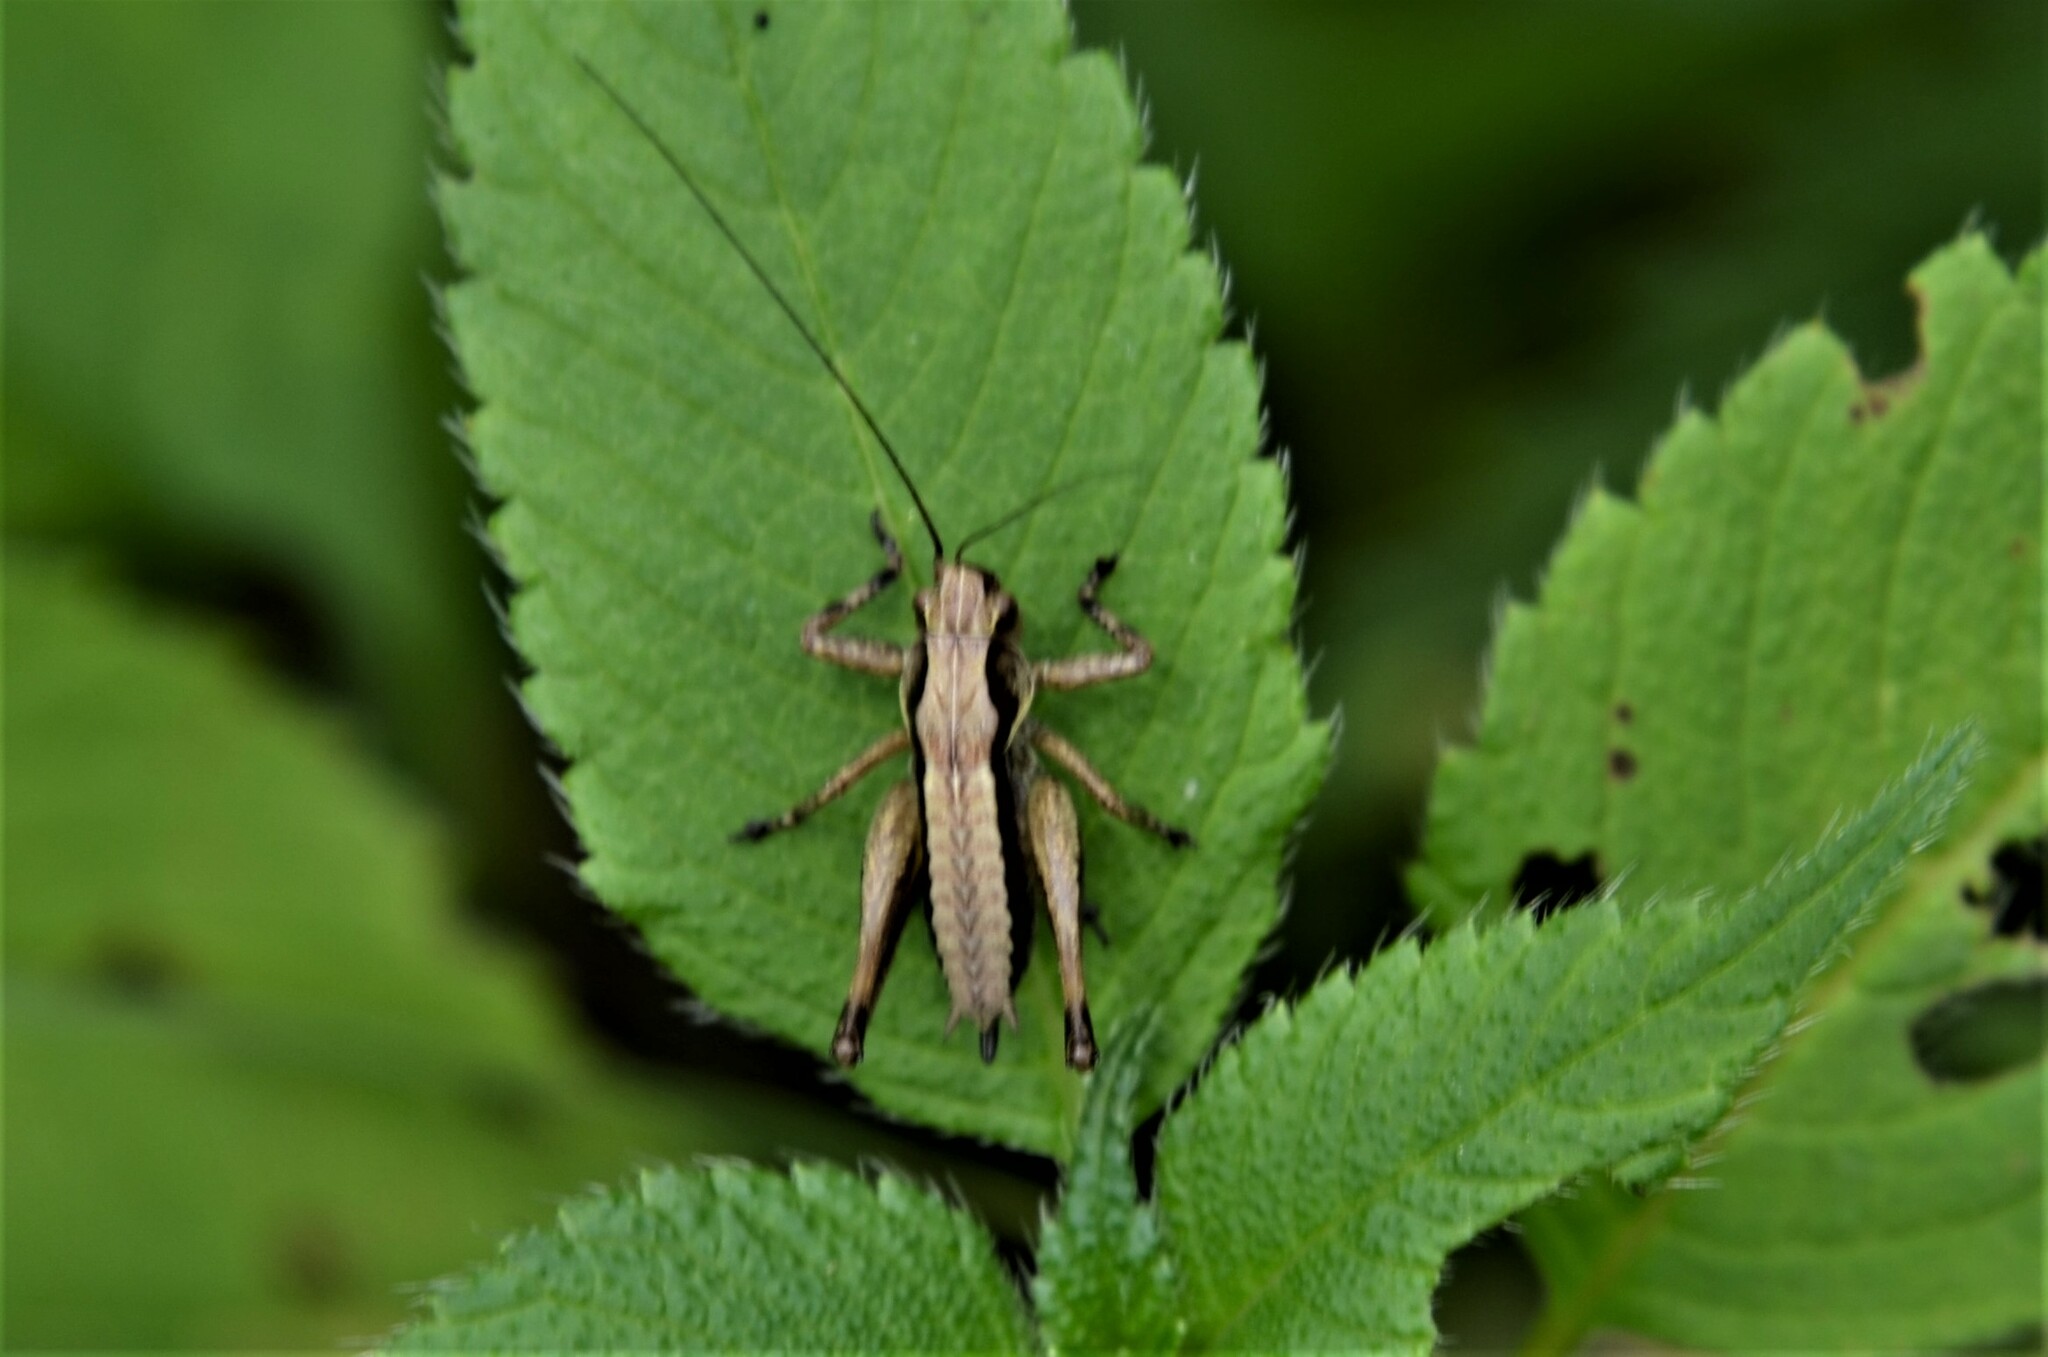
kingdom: Animalia
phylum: Arthropoda
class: Insecta
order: Orthoptera
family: Tettigoniidae
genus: Pholidoptera
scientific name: Pholidoptera griseoaptera
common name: Dark bush-cricket
